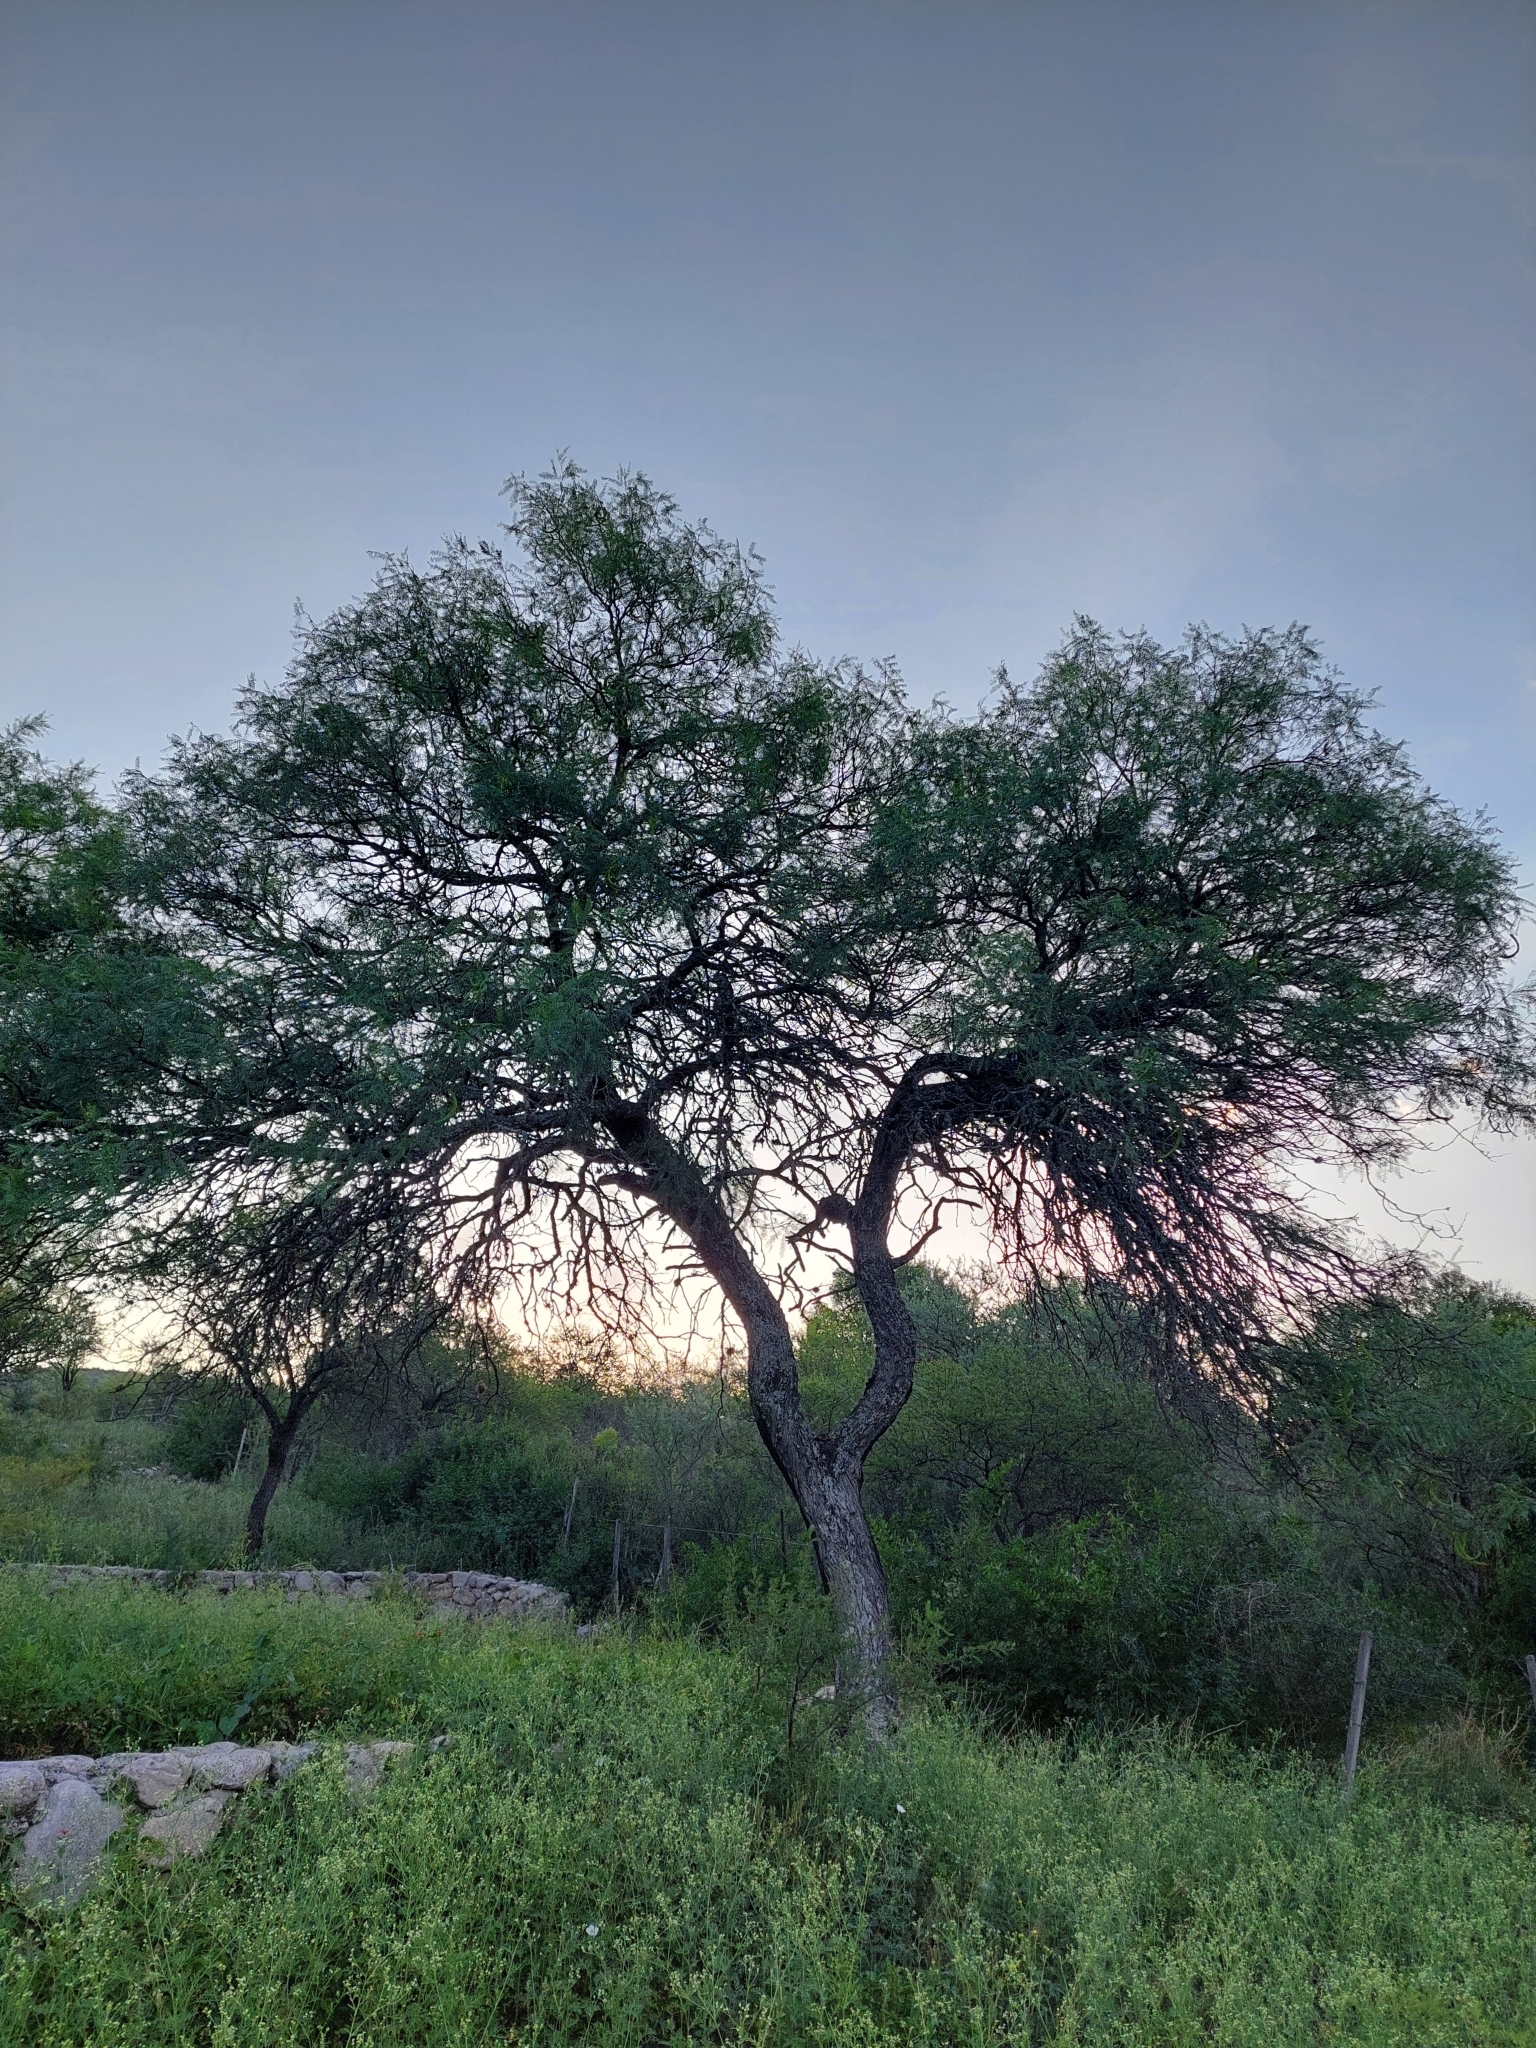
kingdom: Plantae
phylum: Tracheophyta
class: Magnoliopsida
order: Fabales
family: Fabaceae
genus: Prosopis
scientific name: Prosopis chilensis
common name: Chilean algarrobo
